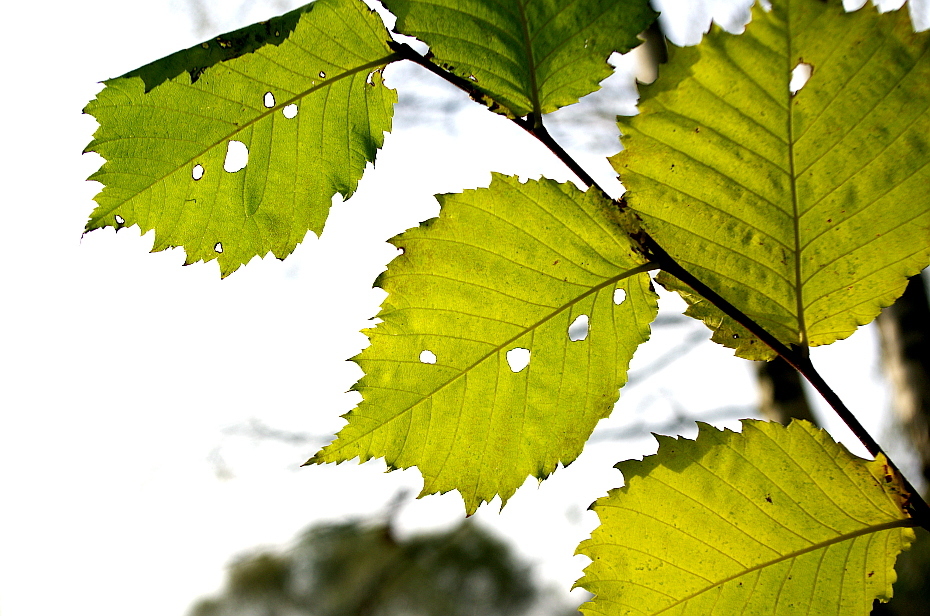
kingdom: Plantae
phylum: Tracheophyta
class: Magnoliopsida
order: Rosales
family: Ulmaceae
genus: Ulmus
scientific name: Ulmus laevis
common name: European white-elm
